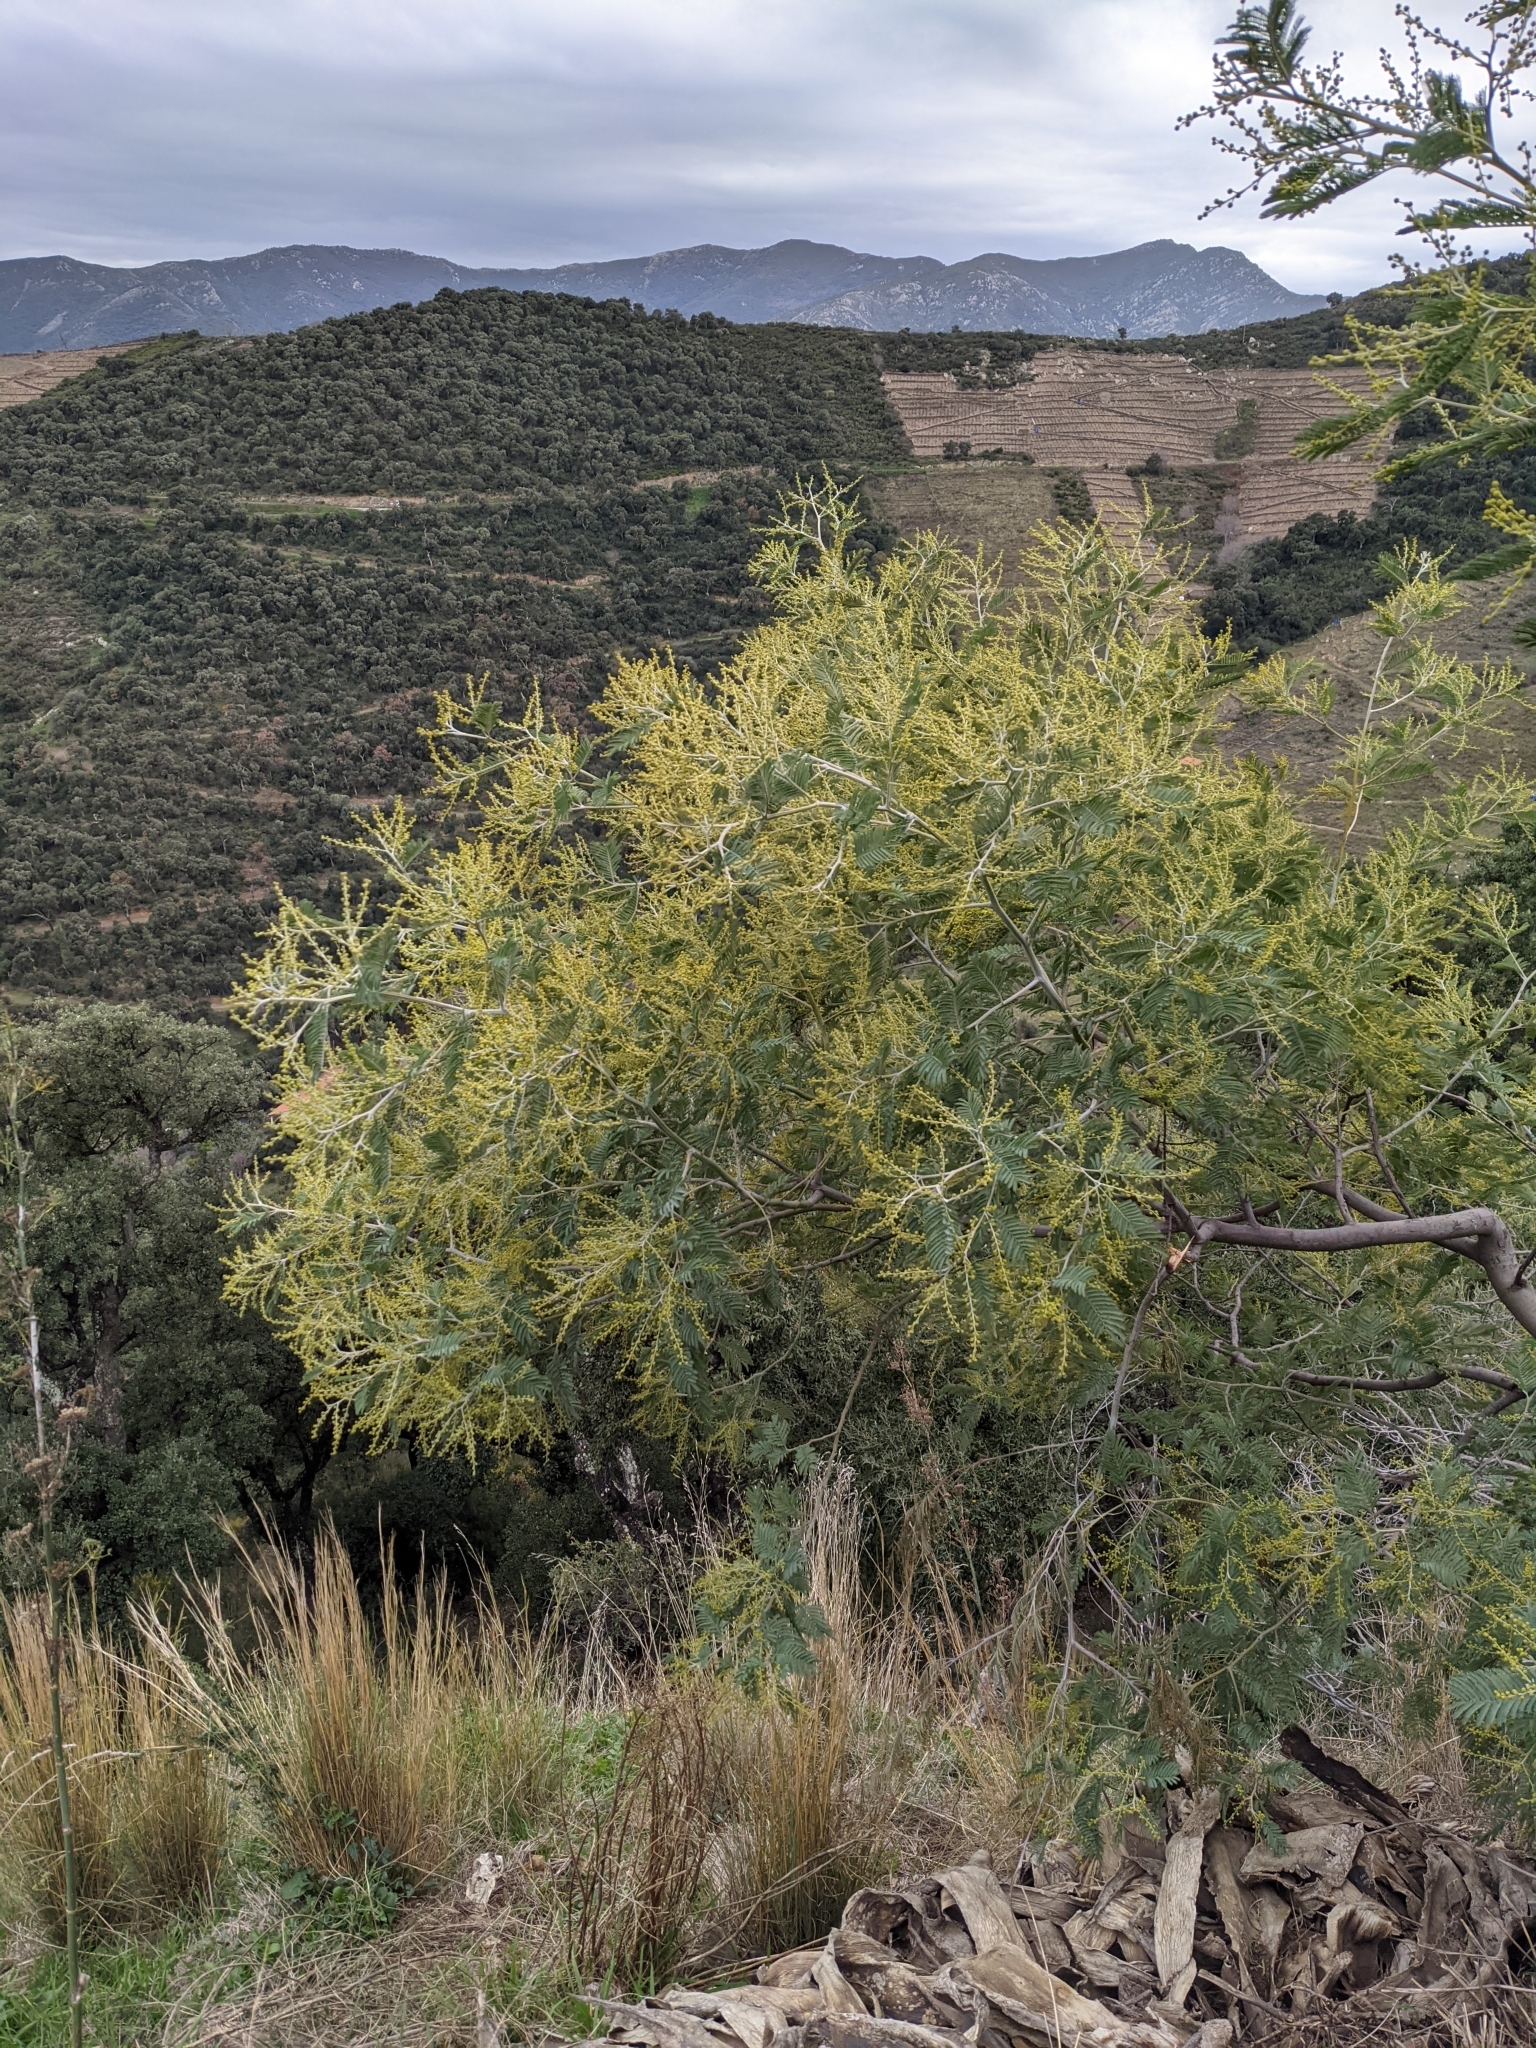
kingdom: Plantae
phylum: Tracheophyta
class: Magnoliopsida
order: Fabales
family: Fabaceae
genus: Acacia
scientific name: Acacia dealbata
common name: Silver wattle
